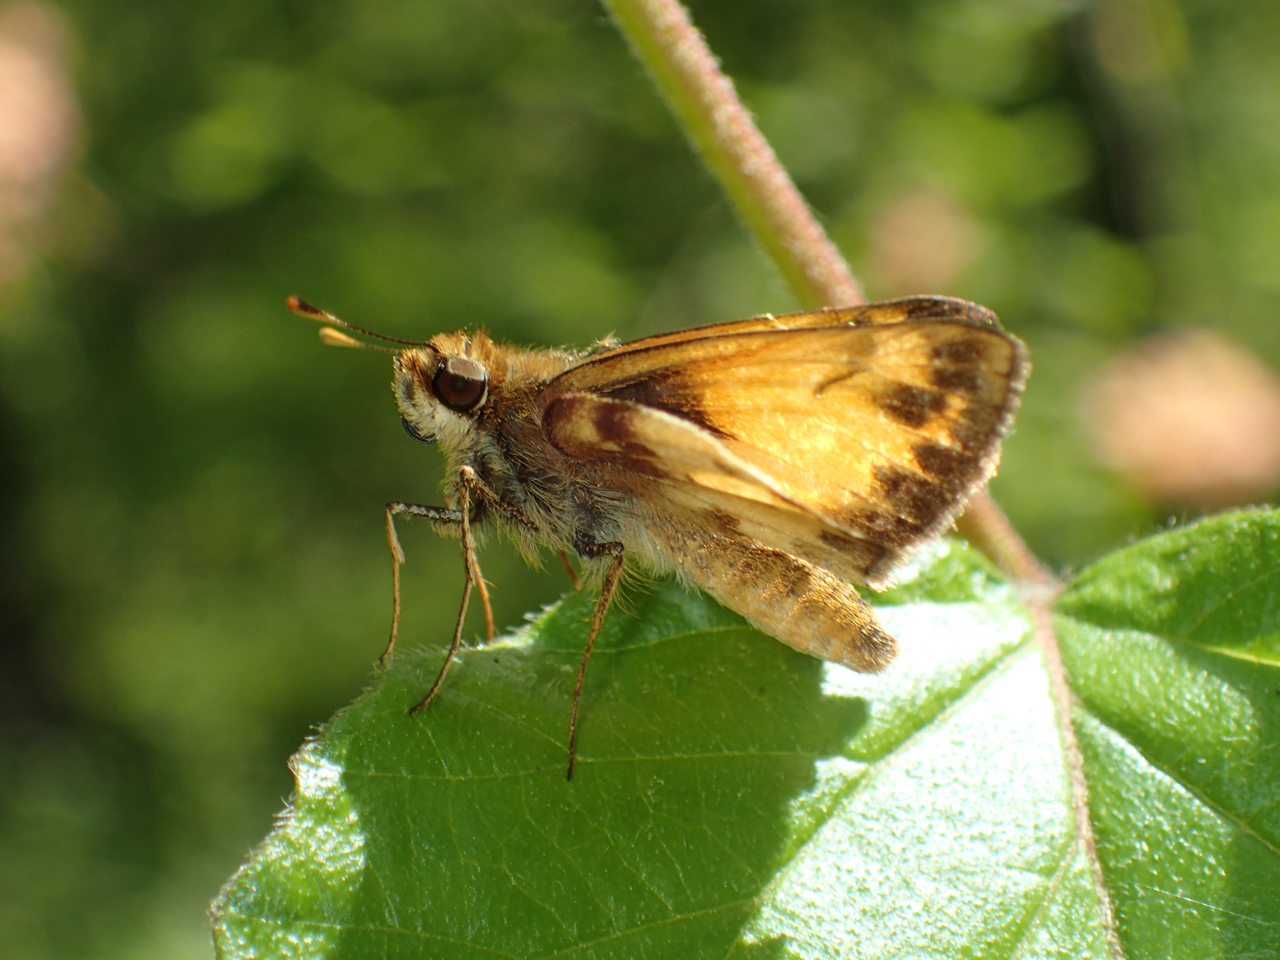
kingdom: Animalia
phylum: Arthropoda
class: Insecta
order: Lepidoptera
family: Hesperiidae
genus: Lon
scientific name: Lon zabulon
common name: Zabulon skipper
